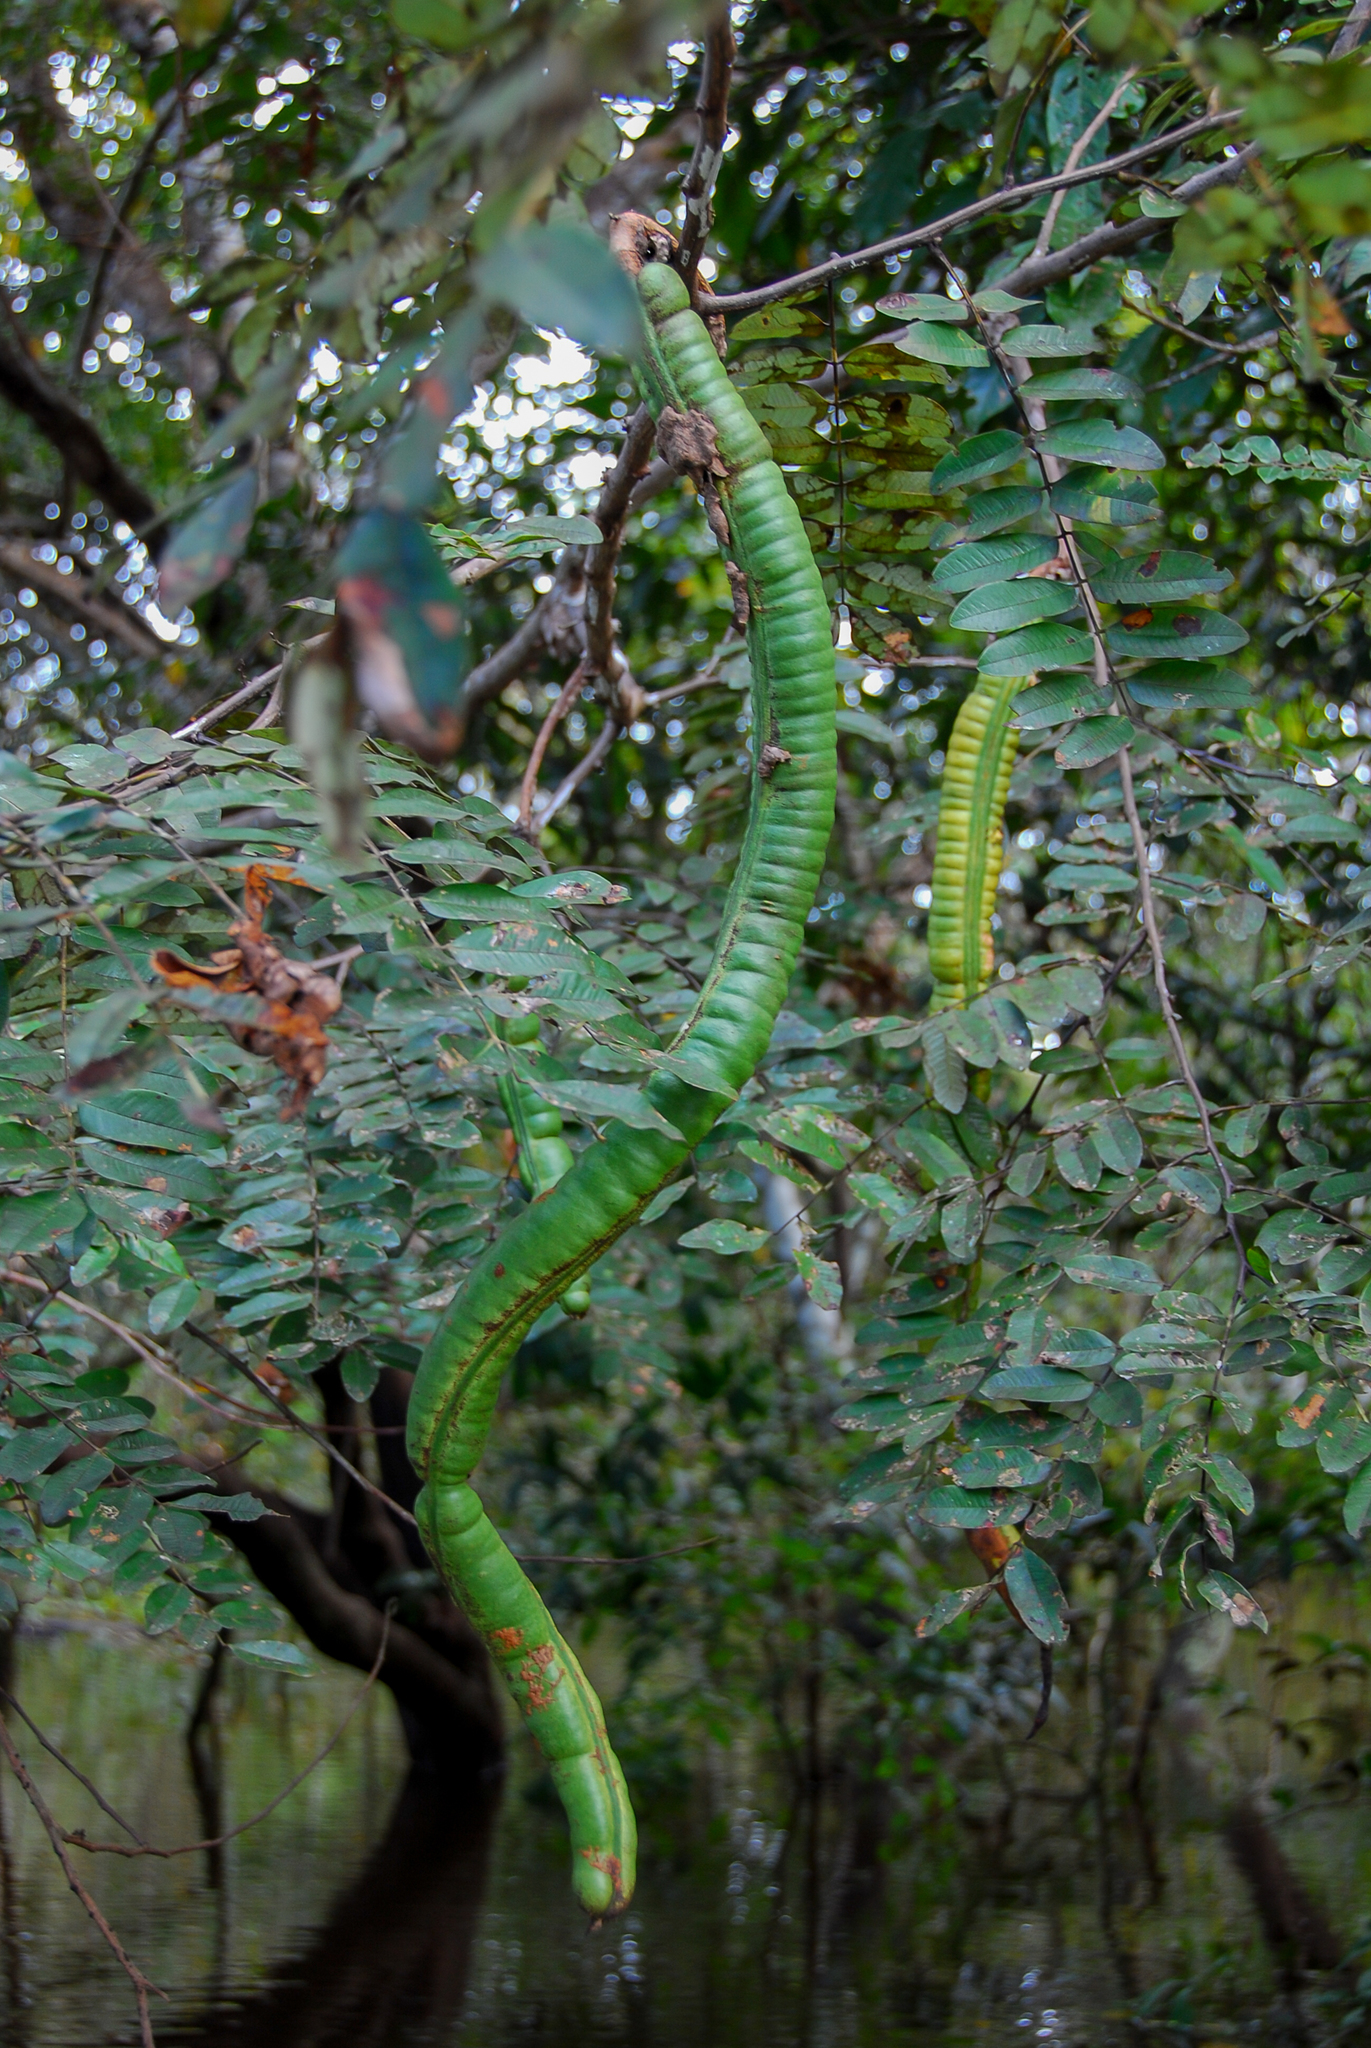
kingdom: Plantae
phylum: Tracheophyta
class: Magnoliopsida
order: Fabales
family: Fabaceae
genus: Cassia
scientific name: Cassia leiandra
